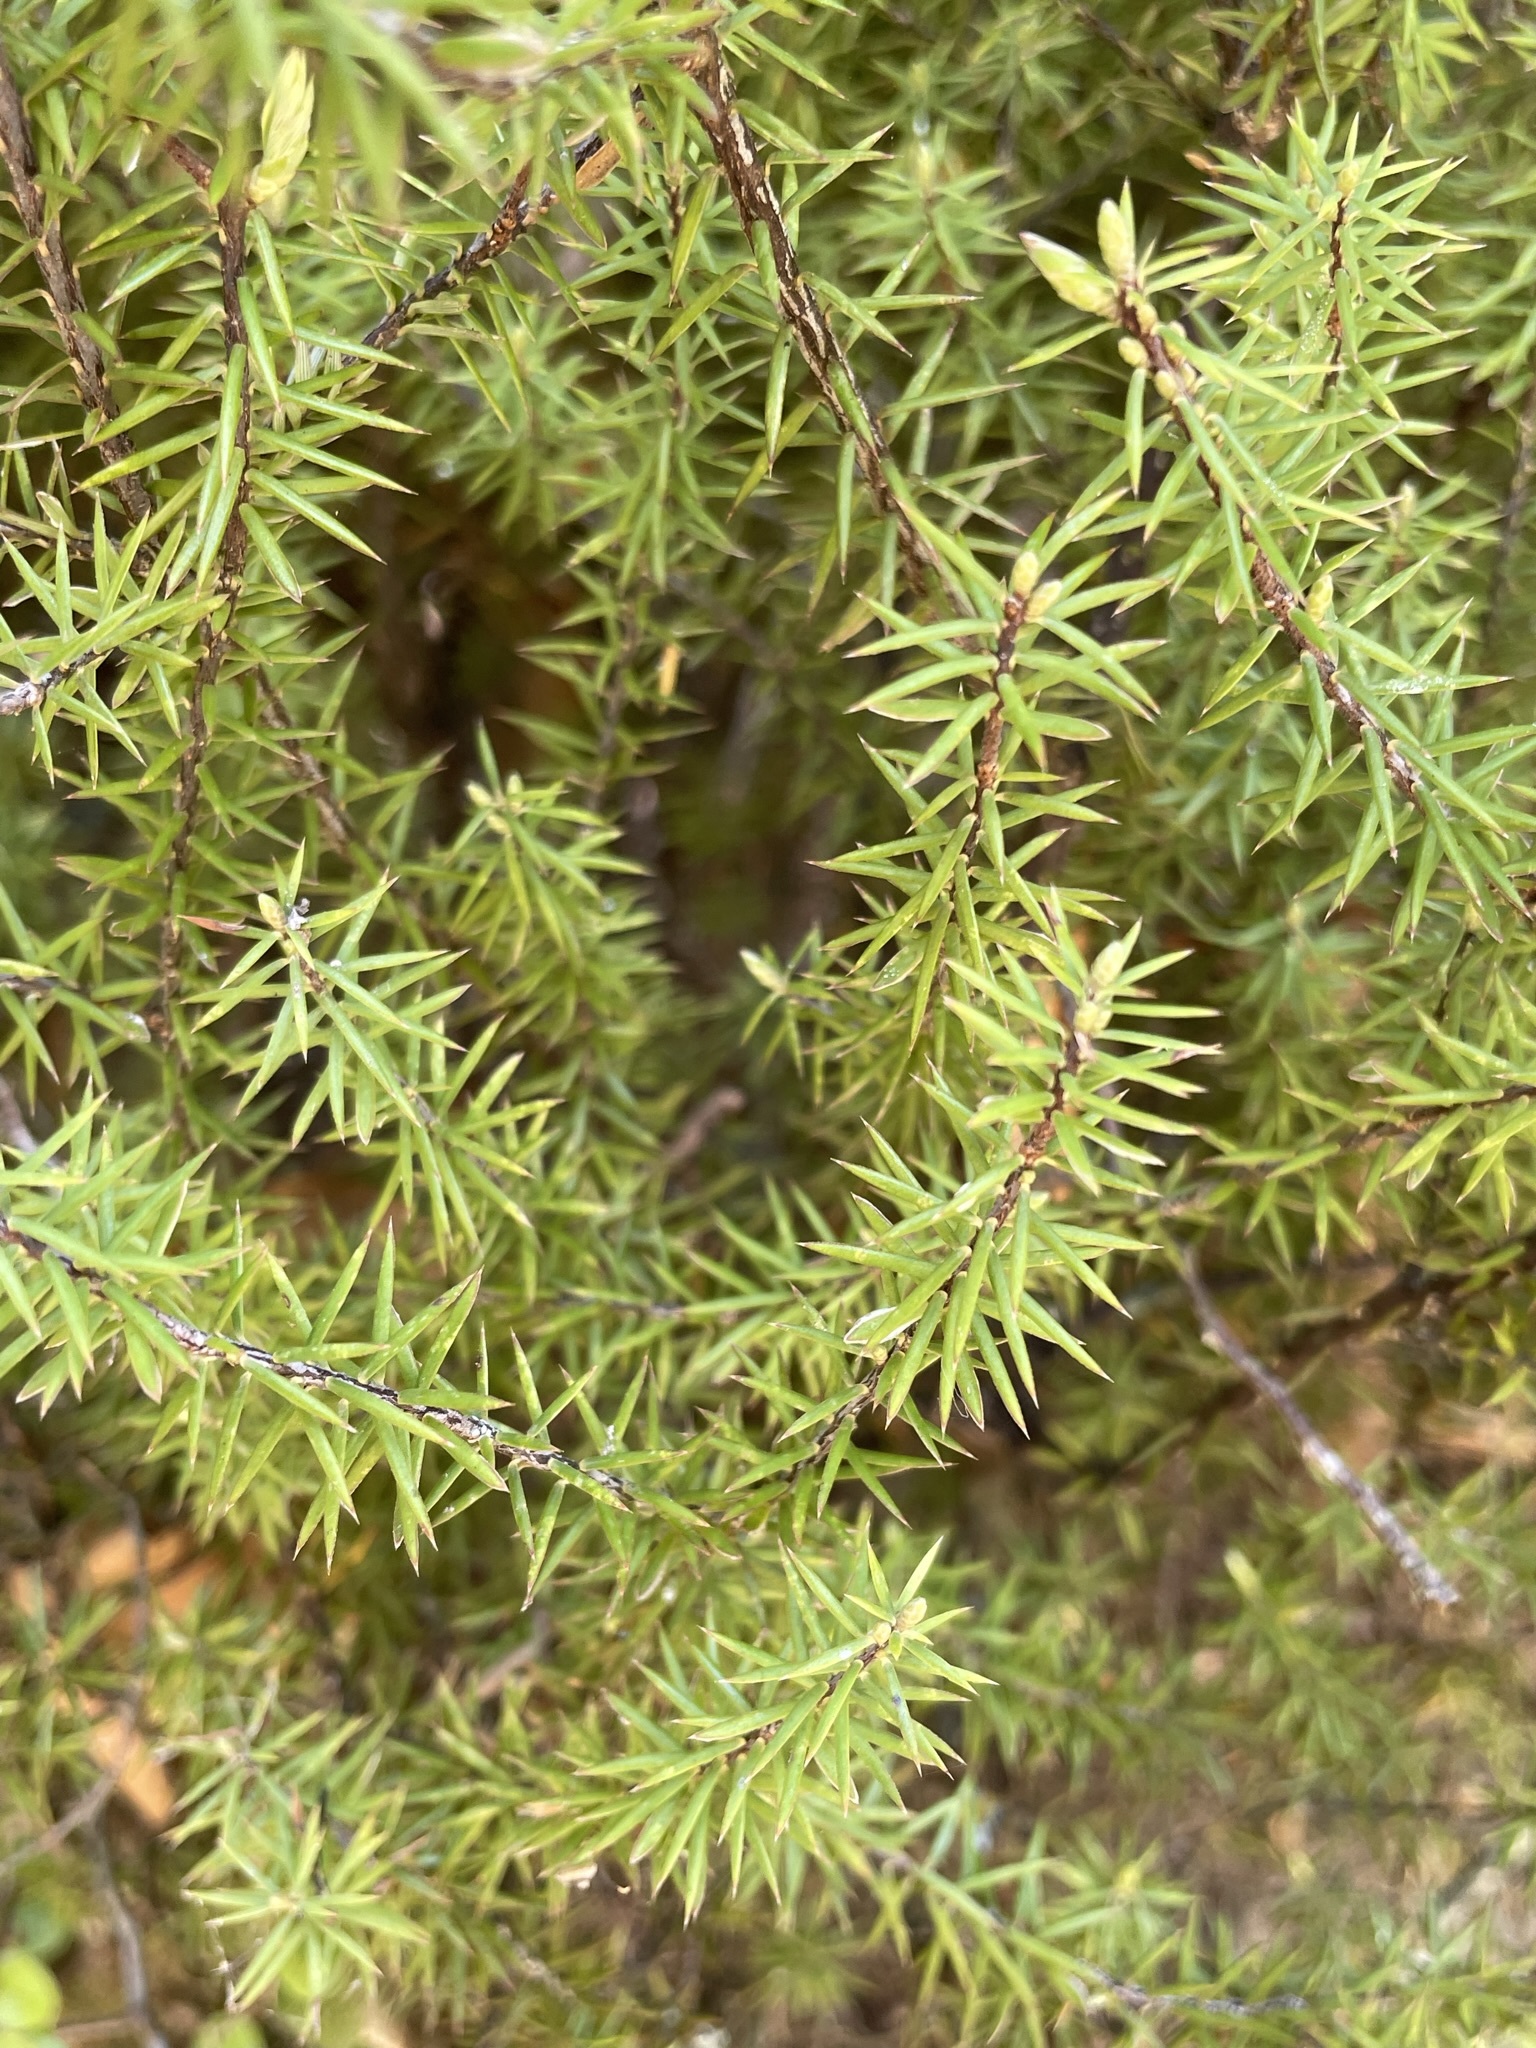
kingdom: Plantae
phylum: Tracheophyta
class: Magnoliopsida
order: Ericales
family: Ericaceae
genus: Leptecophylla
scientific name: Leptecophylla juniperina
